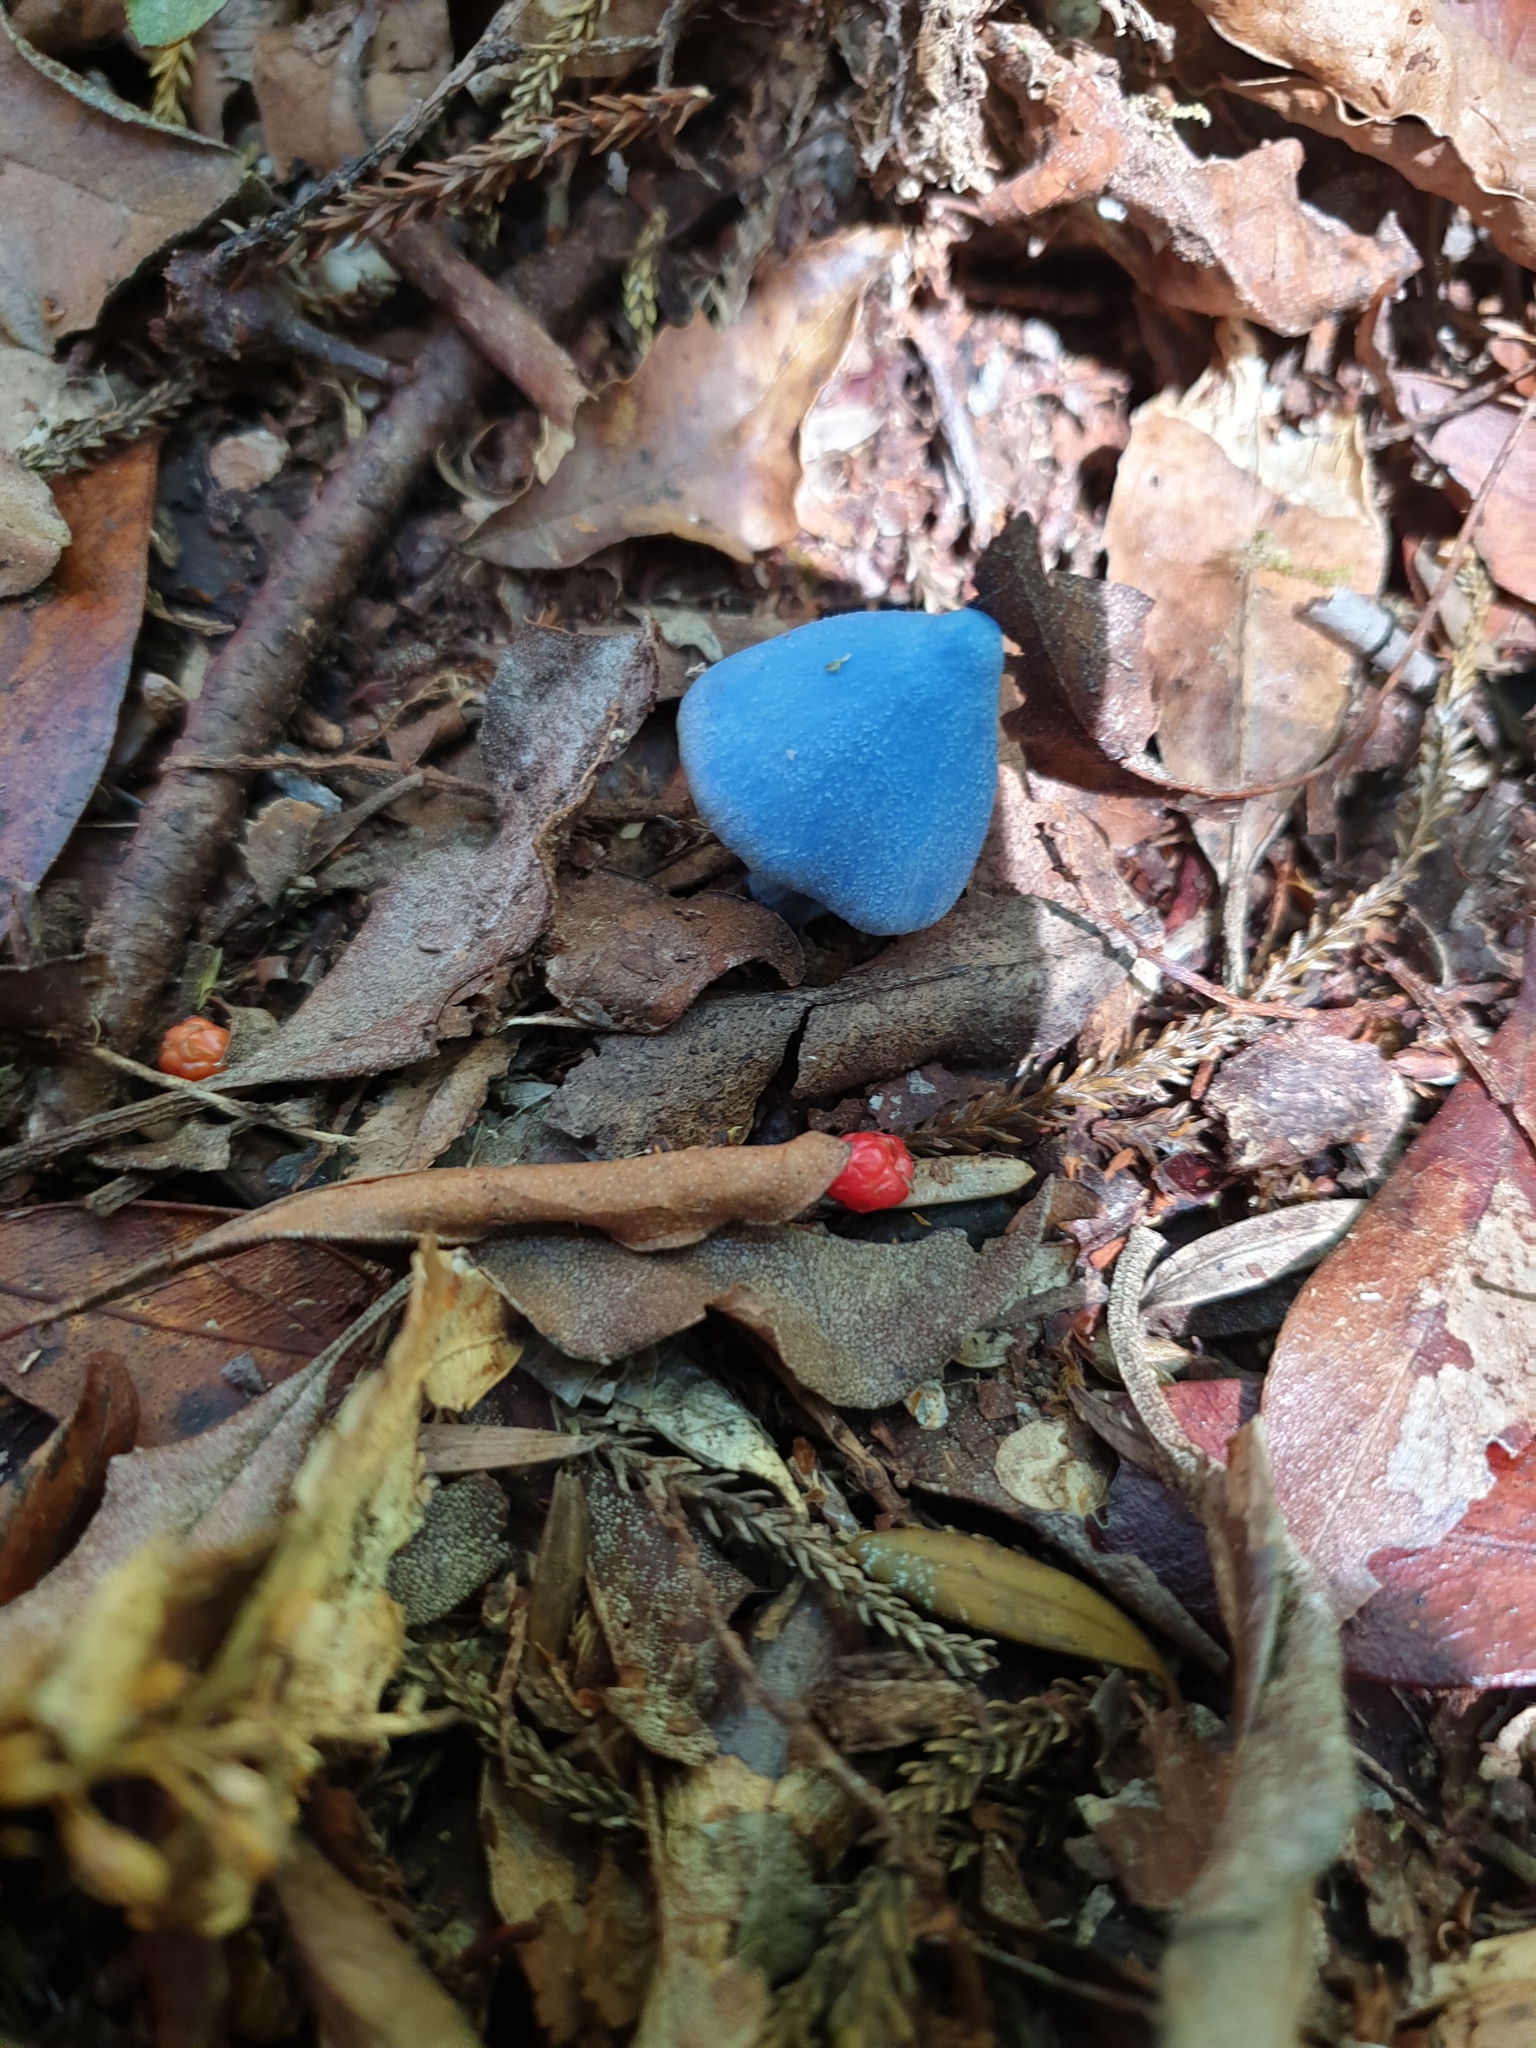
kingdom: Fungi
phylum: Basidiomycota
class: Agaricomycetes
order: Agaricales
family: Entolomataceae
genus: Entoloma
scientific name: Entoloma hochstetteri
